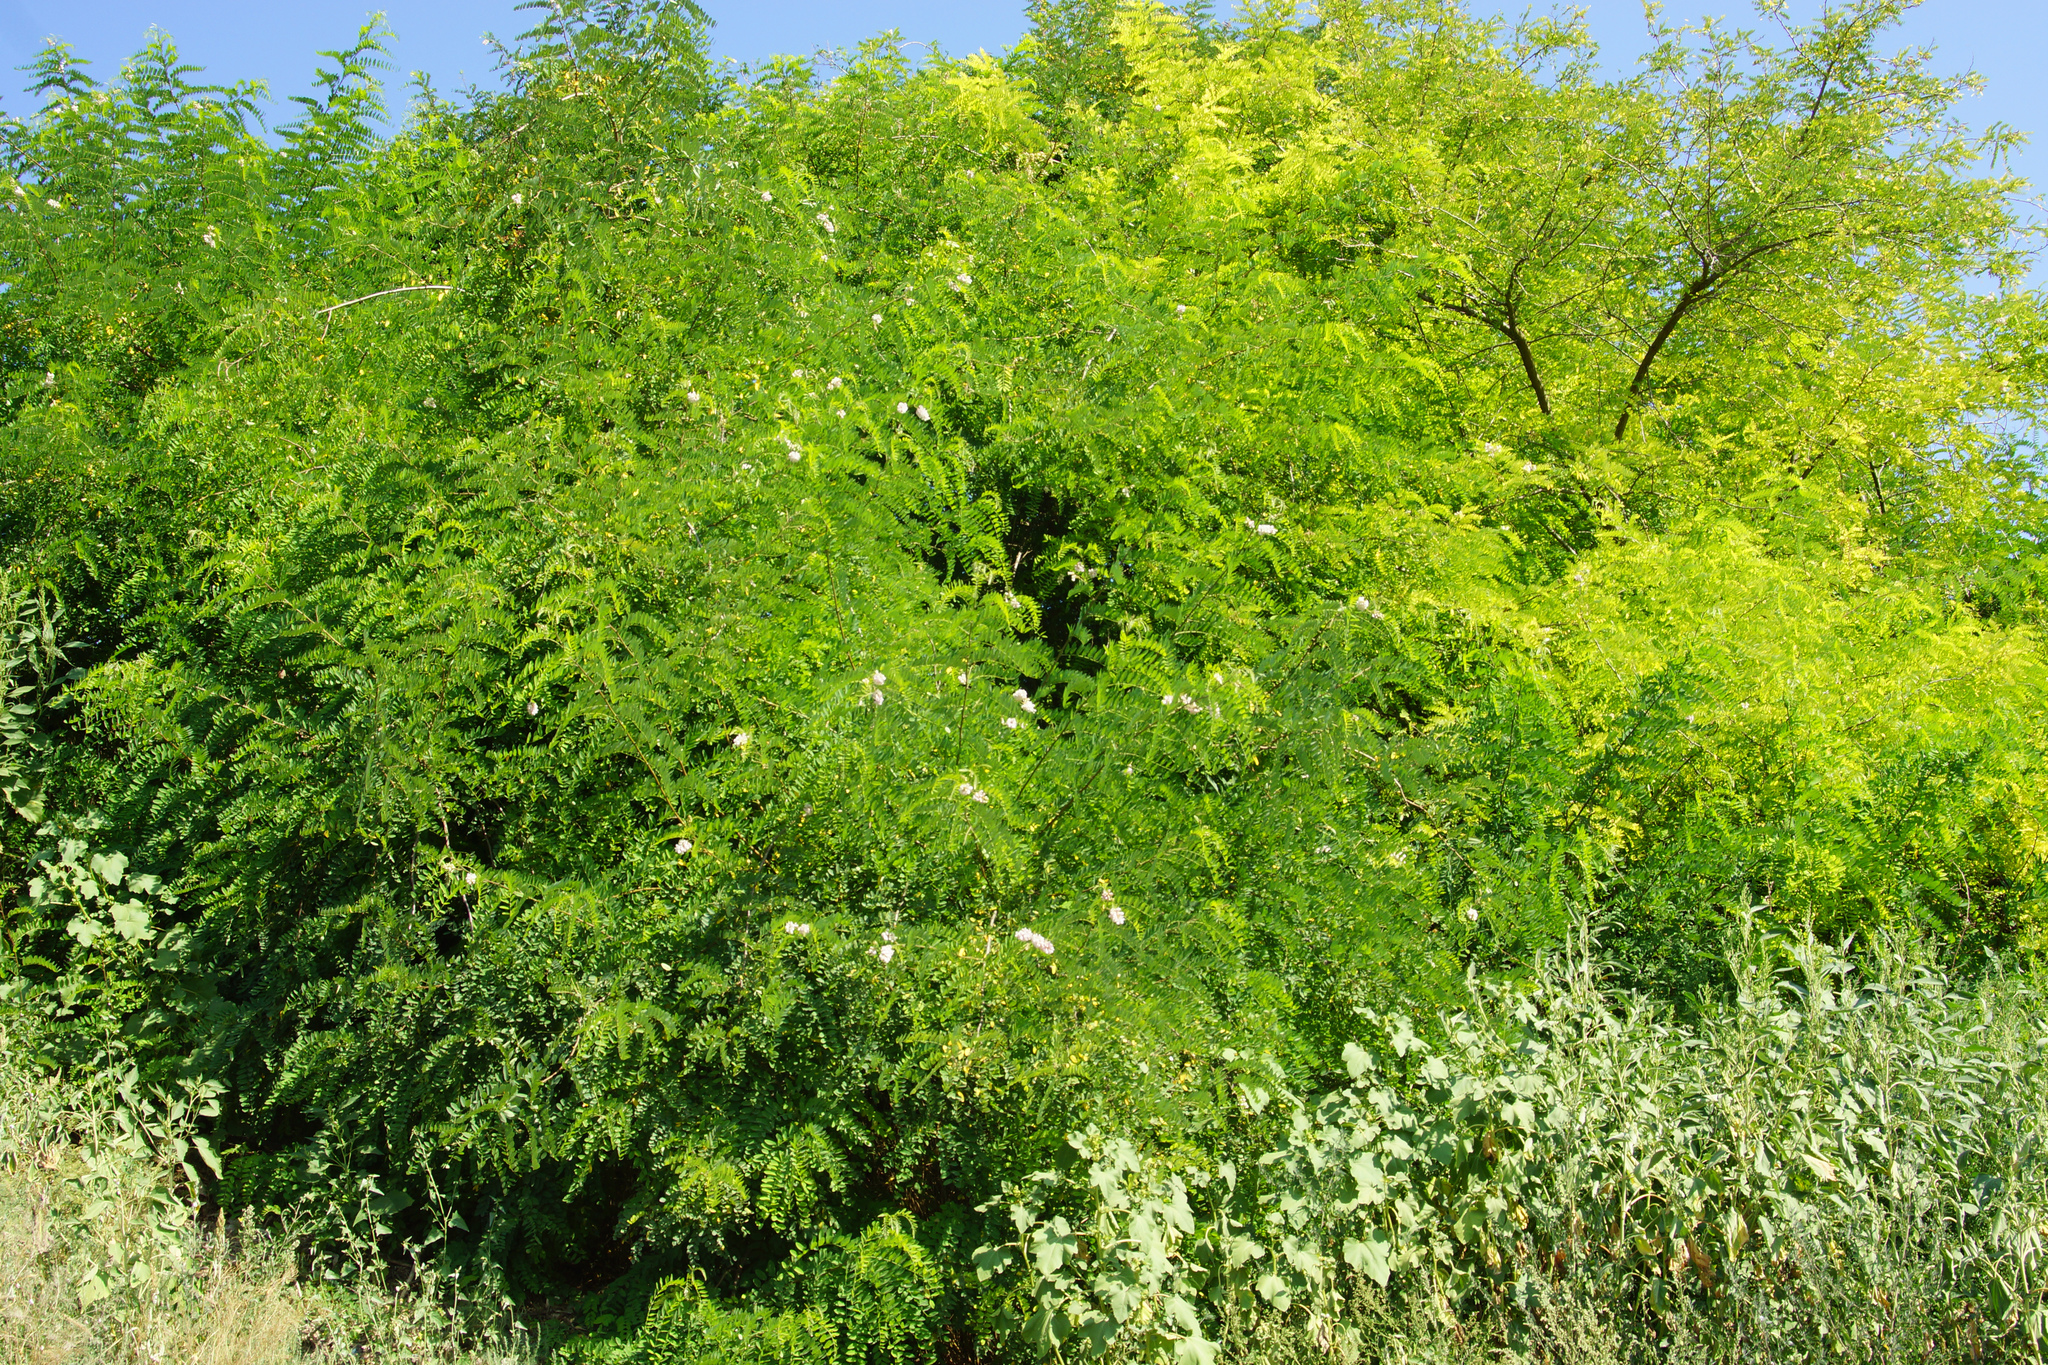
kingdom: Plantae
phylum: Tracheophyta
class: Magnoliopsida
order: Fabales
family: Fabaceae
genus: Robinia
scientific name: Robinia pseudoacacia
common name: Black locust
